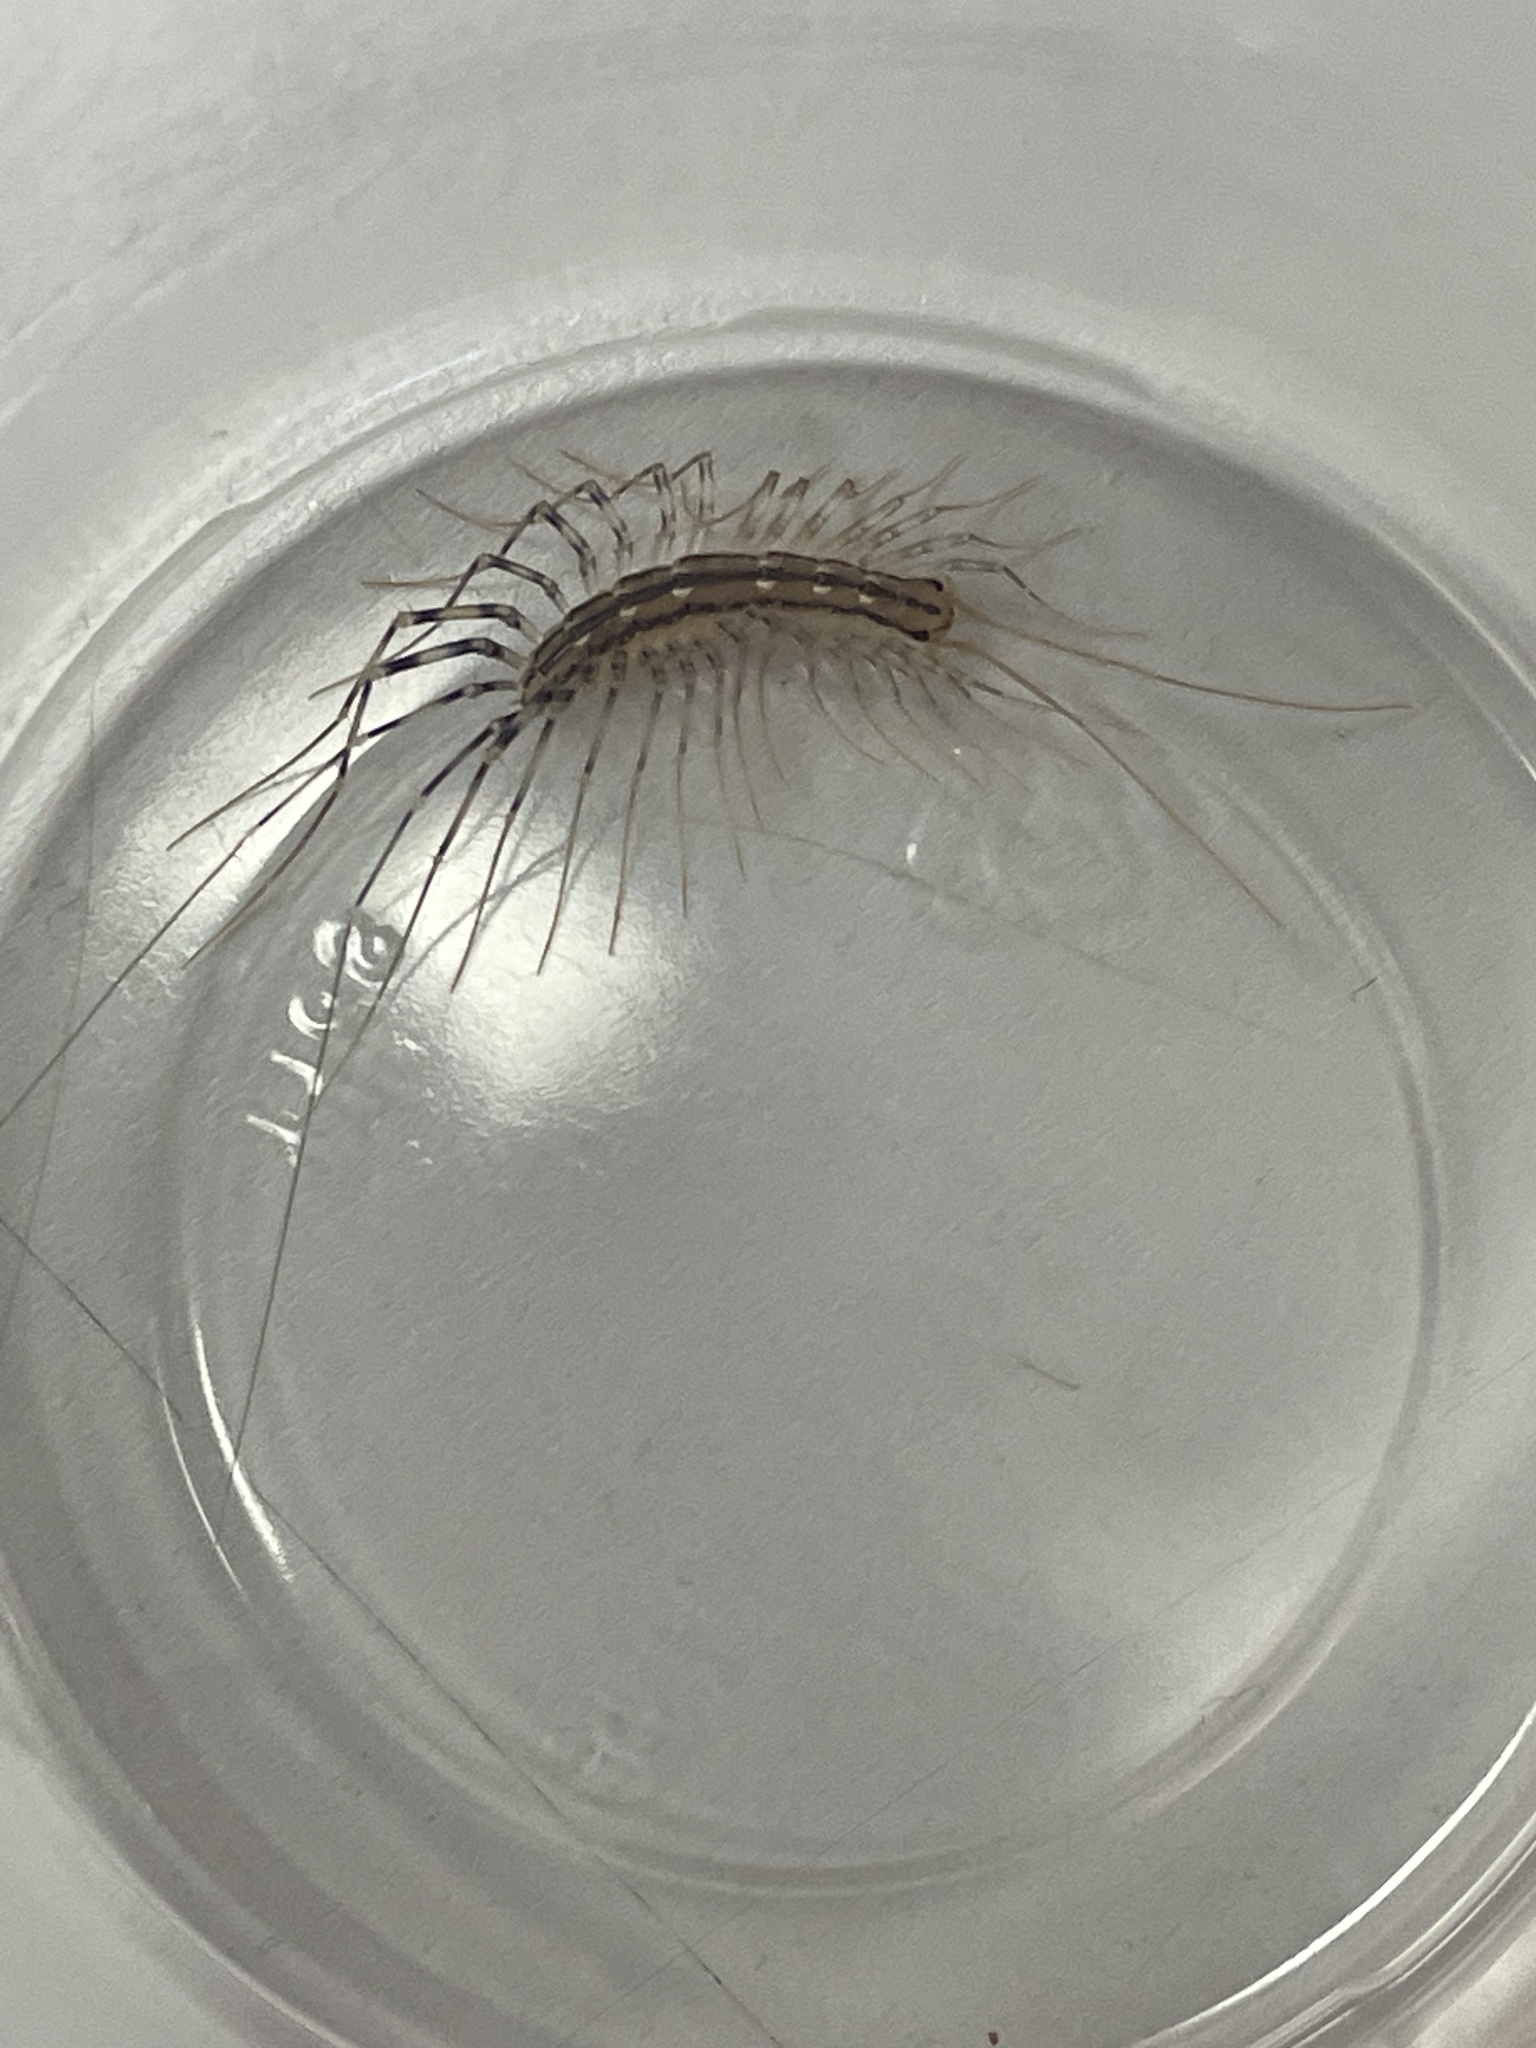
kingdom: Animalia
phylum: Arthropoda
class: Chilopoda
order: Scutigeromorpha
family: Scutigeridae
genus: Scutigera
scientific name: Scutigera coleoptrata
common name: House centipede
